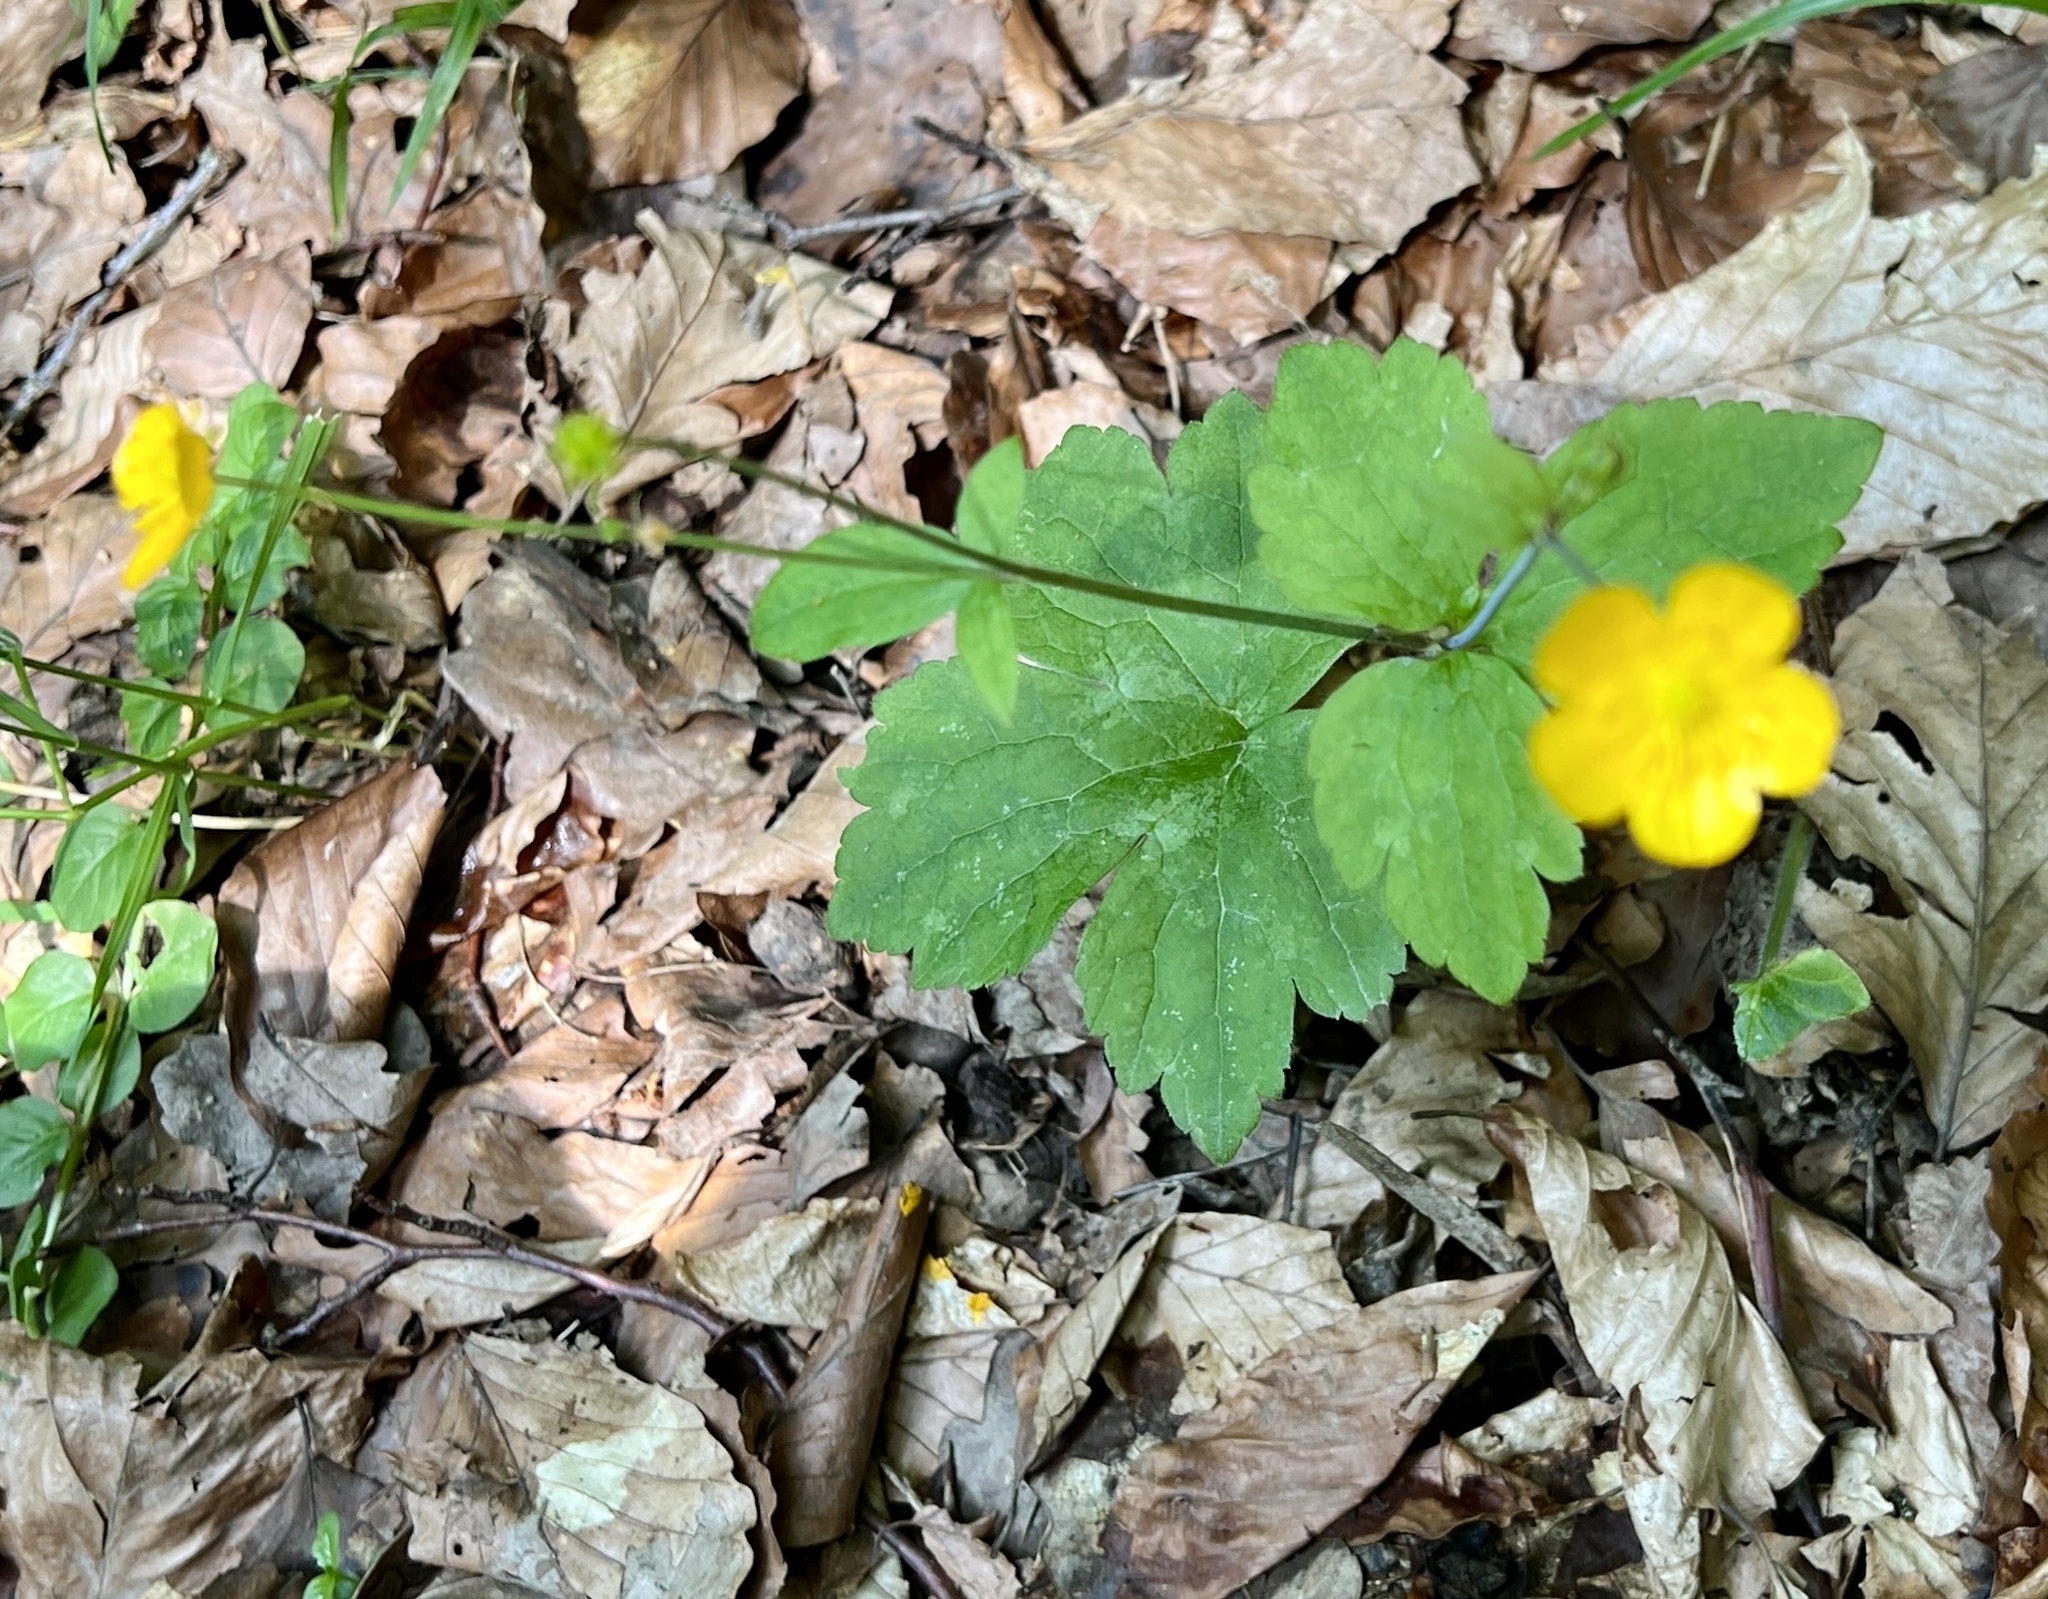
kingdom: Plantae
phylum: Tracheophyta
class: Magnoliopsida
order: Ranunculales
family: Ranunculaceae
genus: Ranunculus
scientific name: Ranunculus lanuginosus
